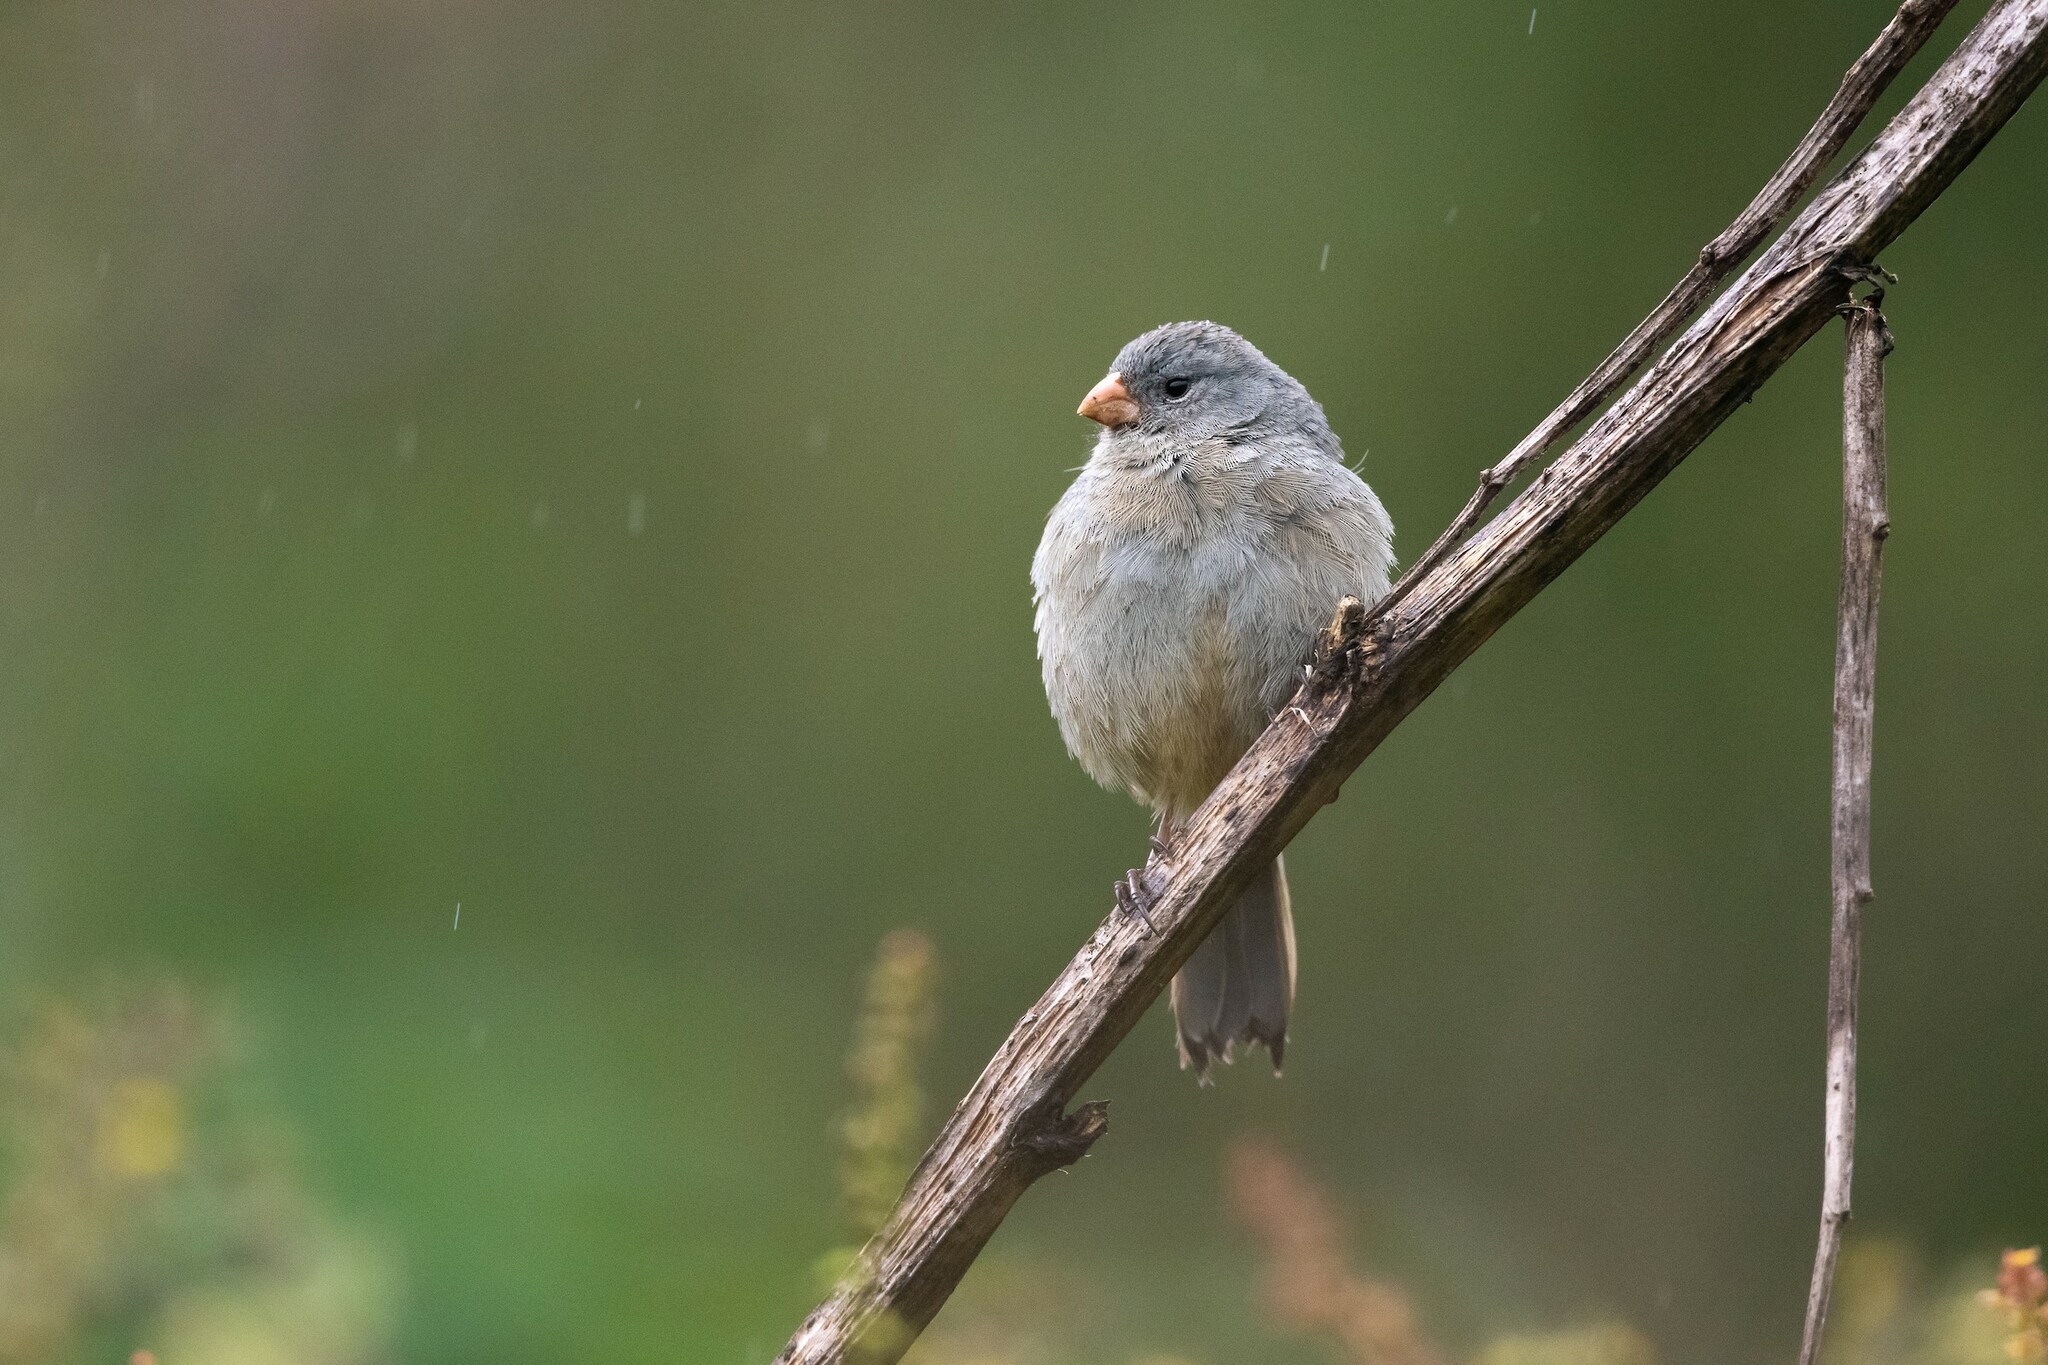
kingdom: Animalia
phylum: Chordata
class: Aves
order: Passeriformes
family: Thraupidae
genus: Catamenia
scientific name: Catamenia inornata
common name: Plain-colored seedeater
